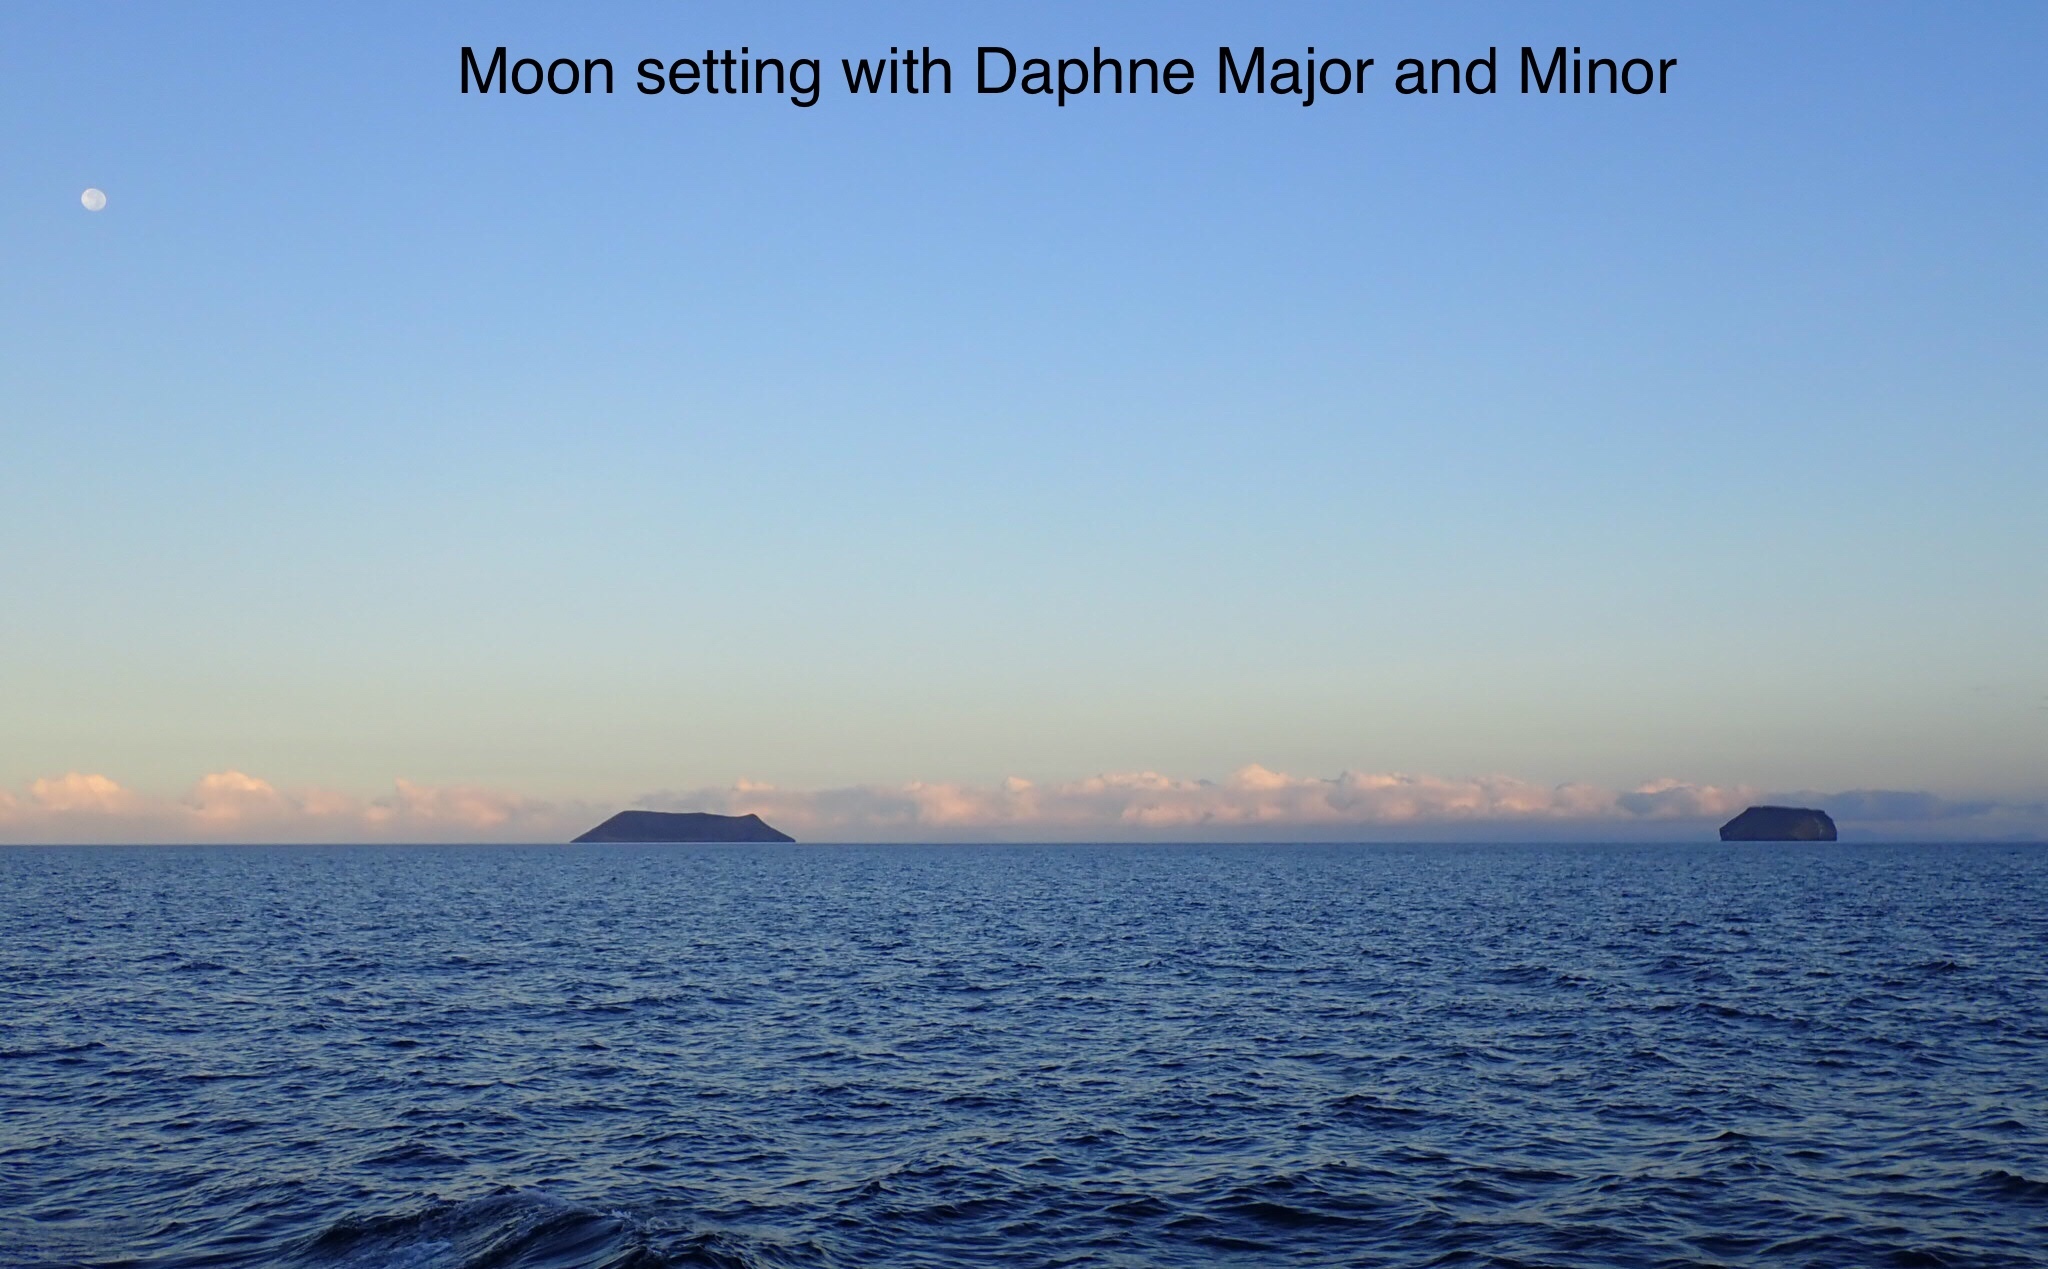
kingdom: Animalia
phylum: Chordata
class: Elasmobranchii
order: Carcharhiniformes
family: Carcharhinidae
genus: Carcharhinus
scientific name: Carcharhinus limbatus
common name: Blacktip shark
